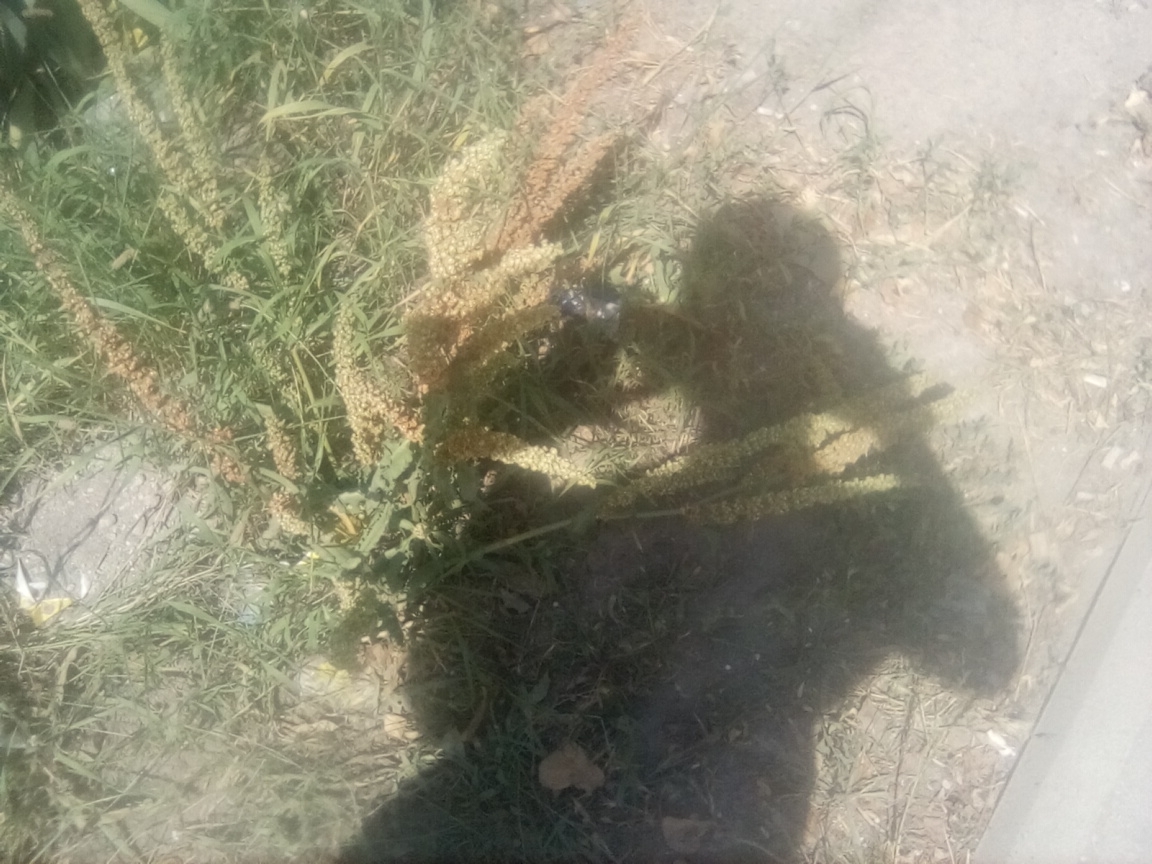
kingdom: Plantae
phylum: Tracheophyta
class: Magnoliopsida
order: Caryophyllales
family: Polygonaceae
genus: Rumex
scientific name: Rumex crispus
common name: Curled dock
